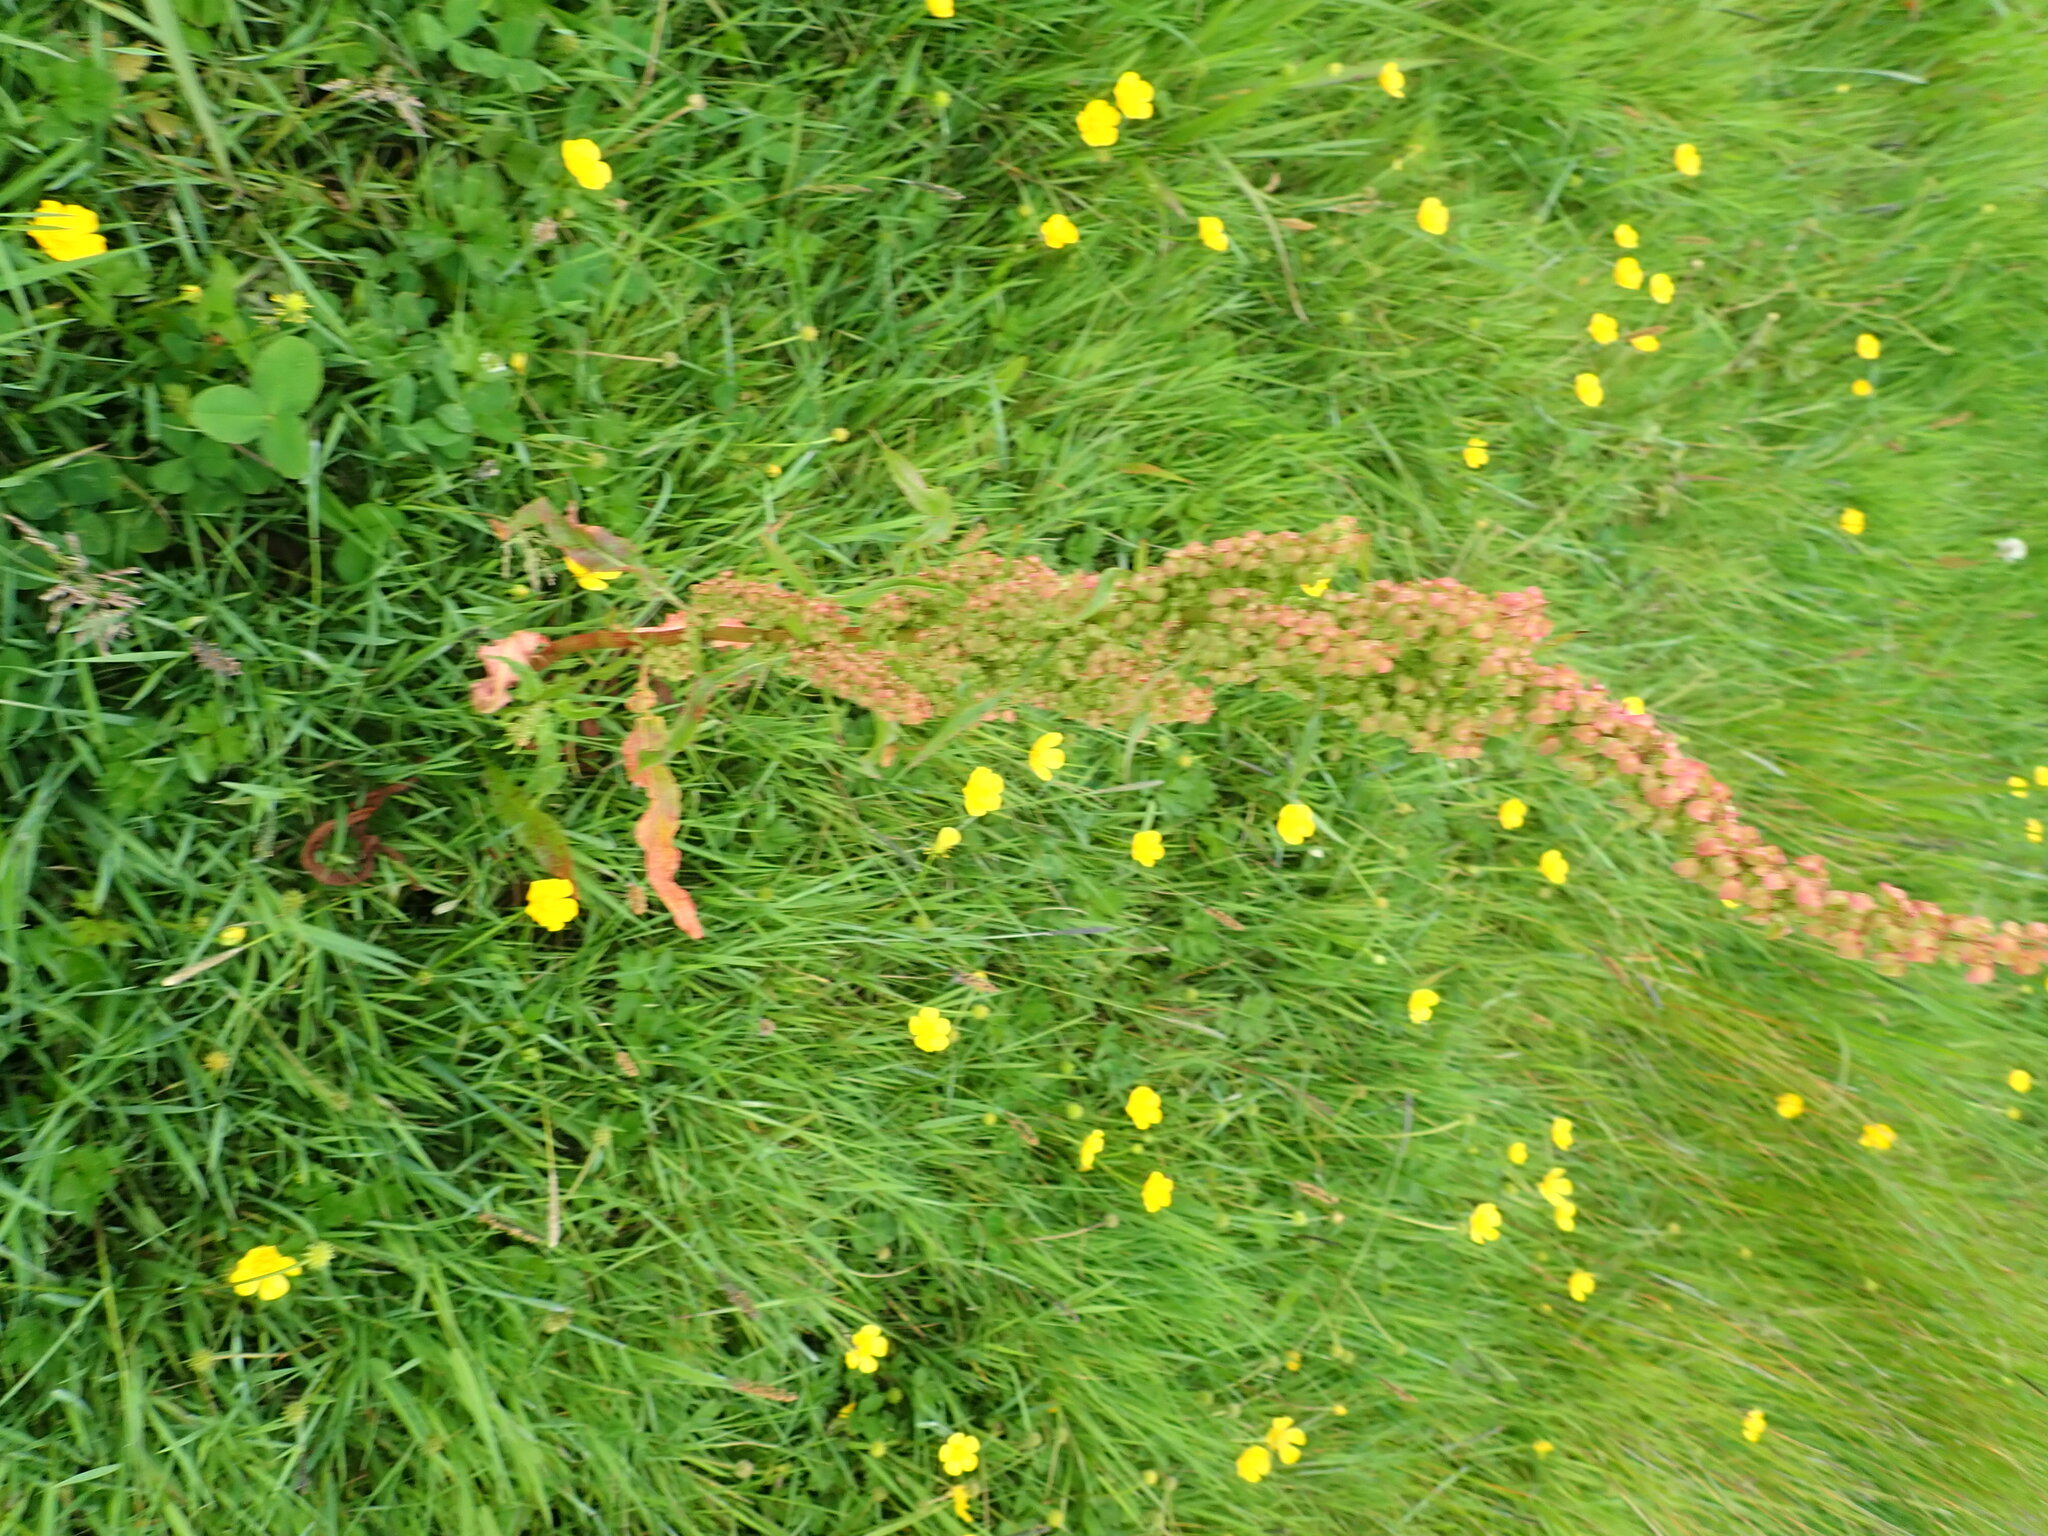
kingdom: Plantae
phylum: Tracheophyta
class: Magnoliopsida
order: Caryophyllales
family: Polygonaceae
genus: Rumex
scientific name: Rumex crispus
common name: Curled dock
